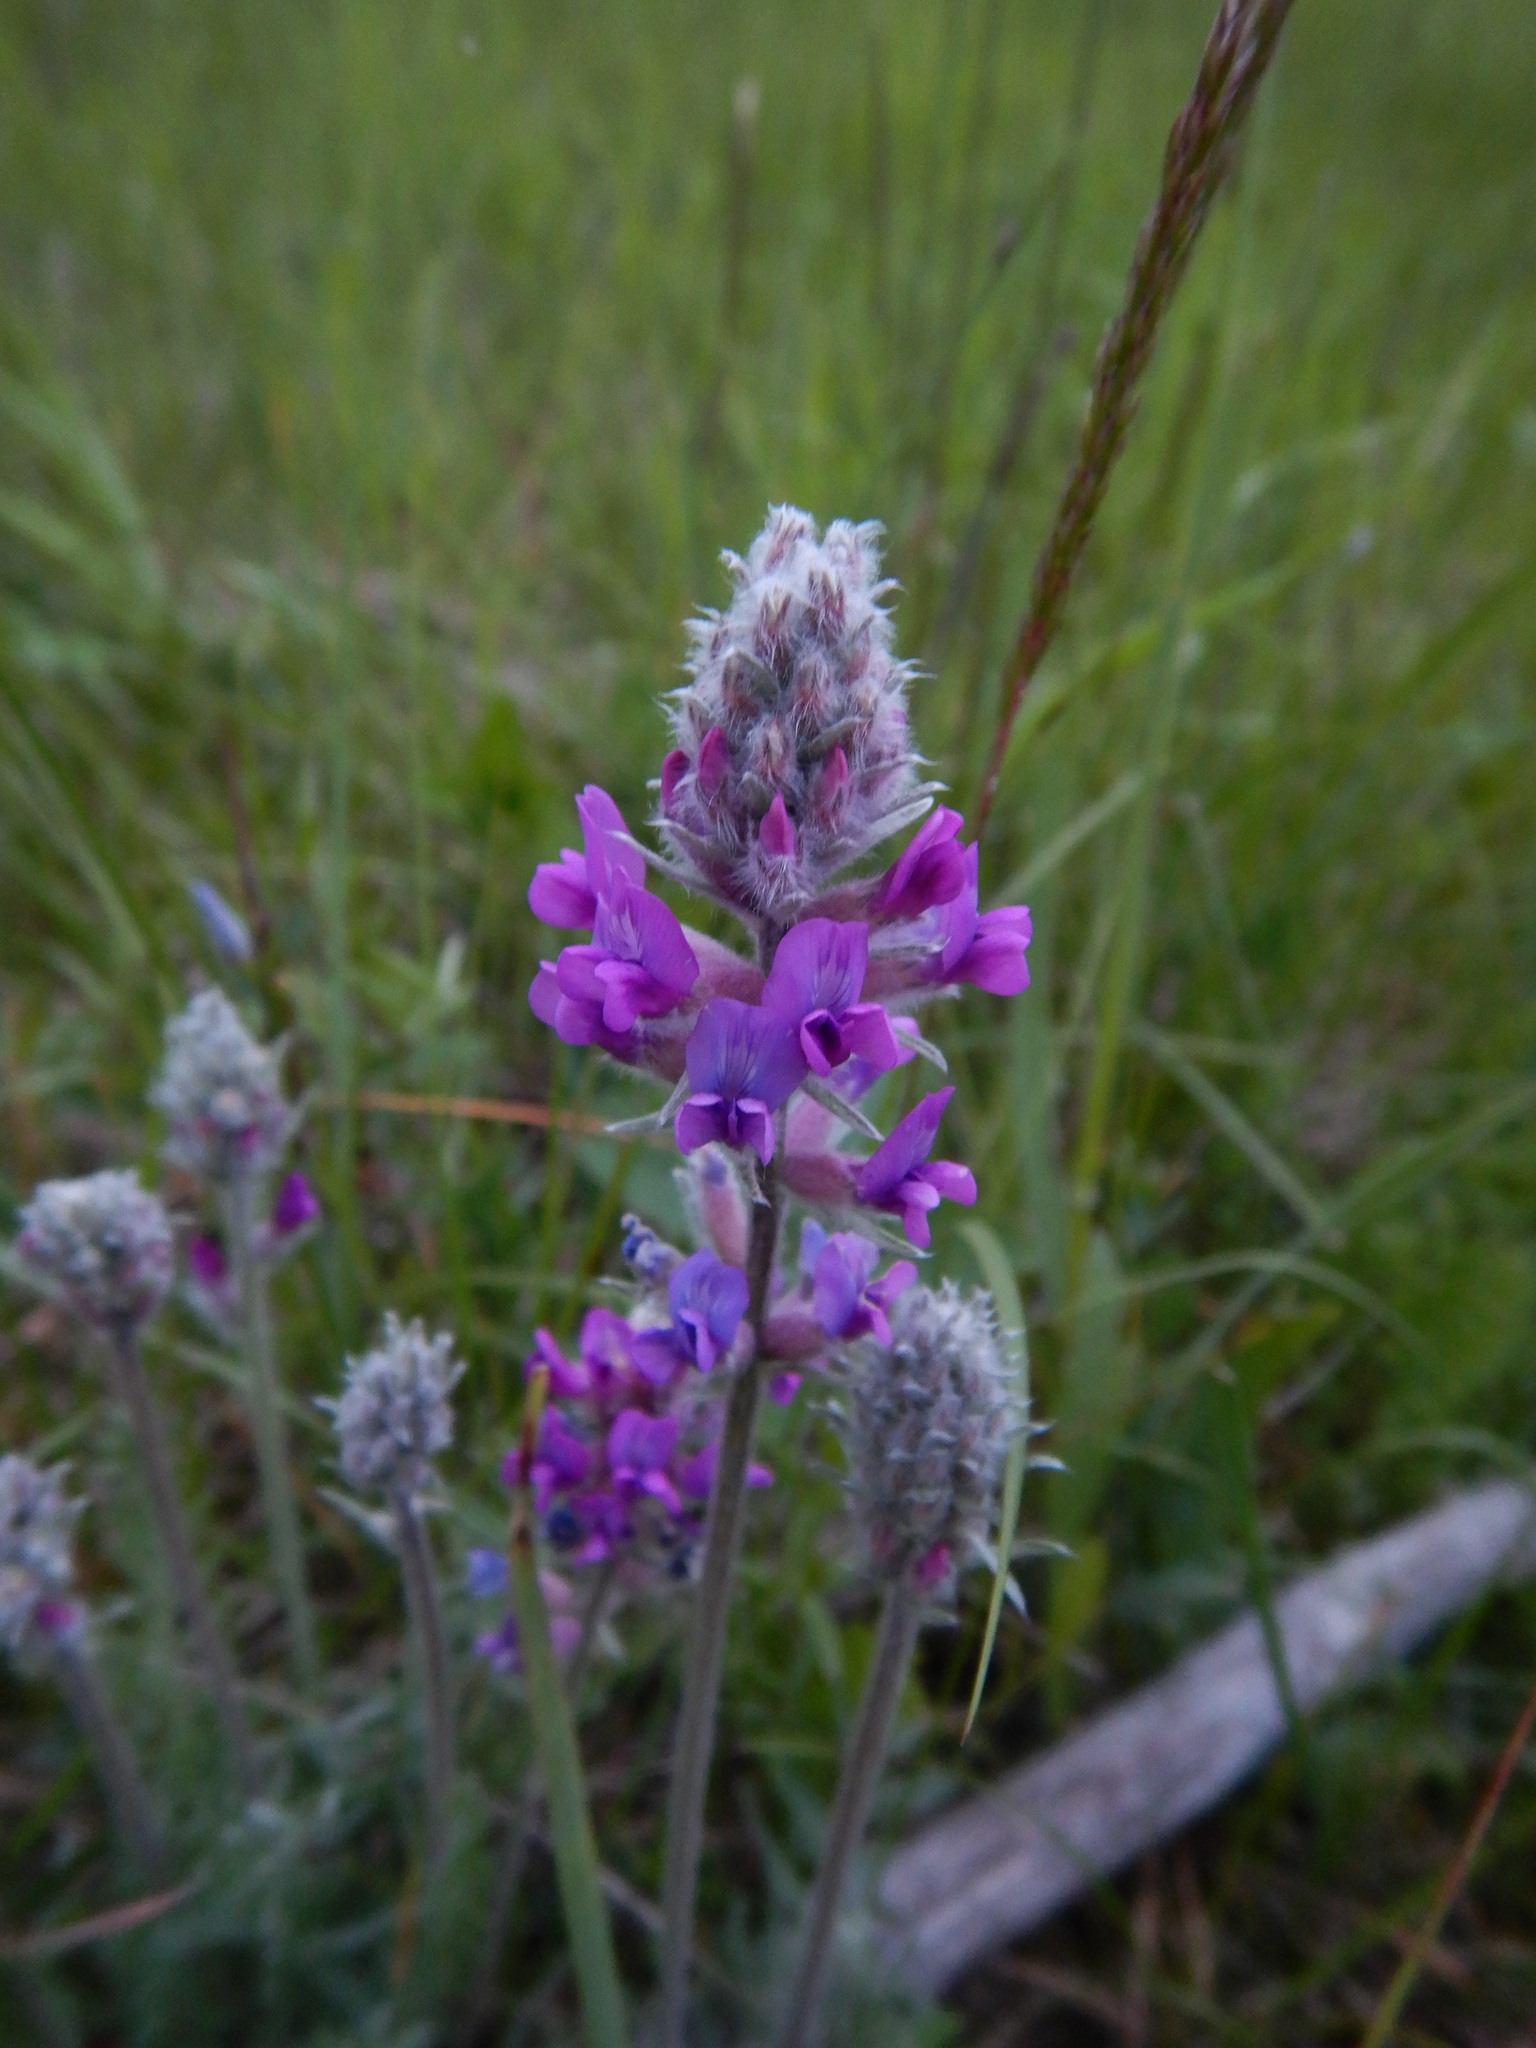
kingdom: Plantae
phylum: Tracheophyta
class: Magnoliopsida
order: Fabales
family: Fabaceae
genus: Oxytropis
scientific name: Oxytropis splendens
